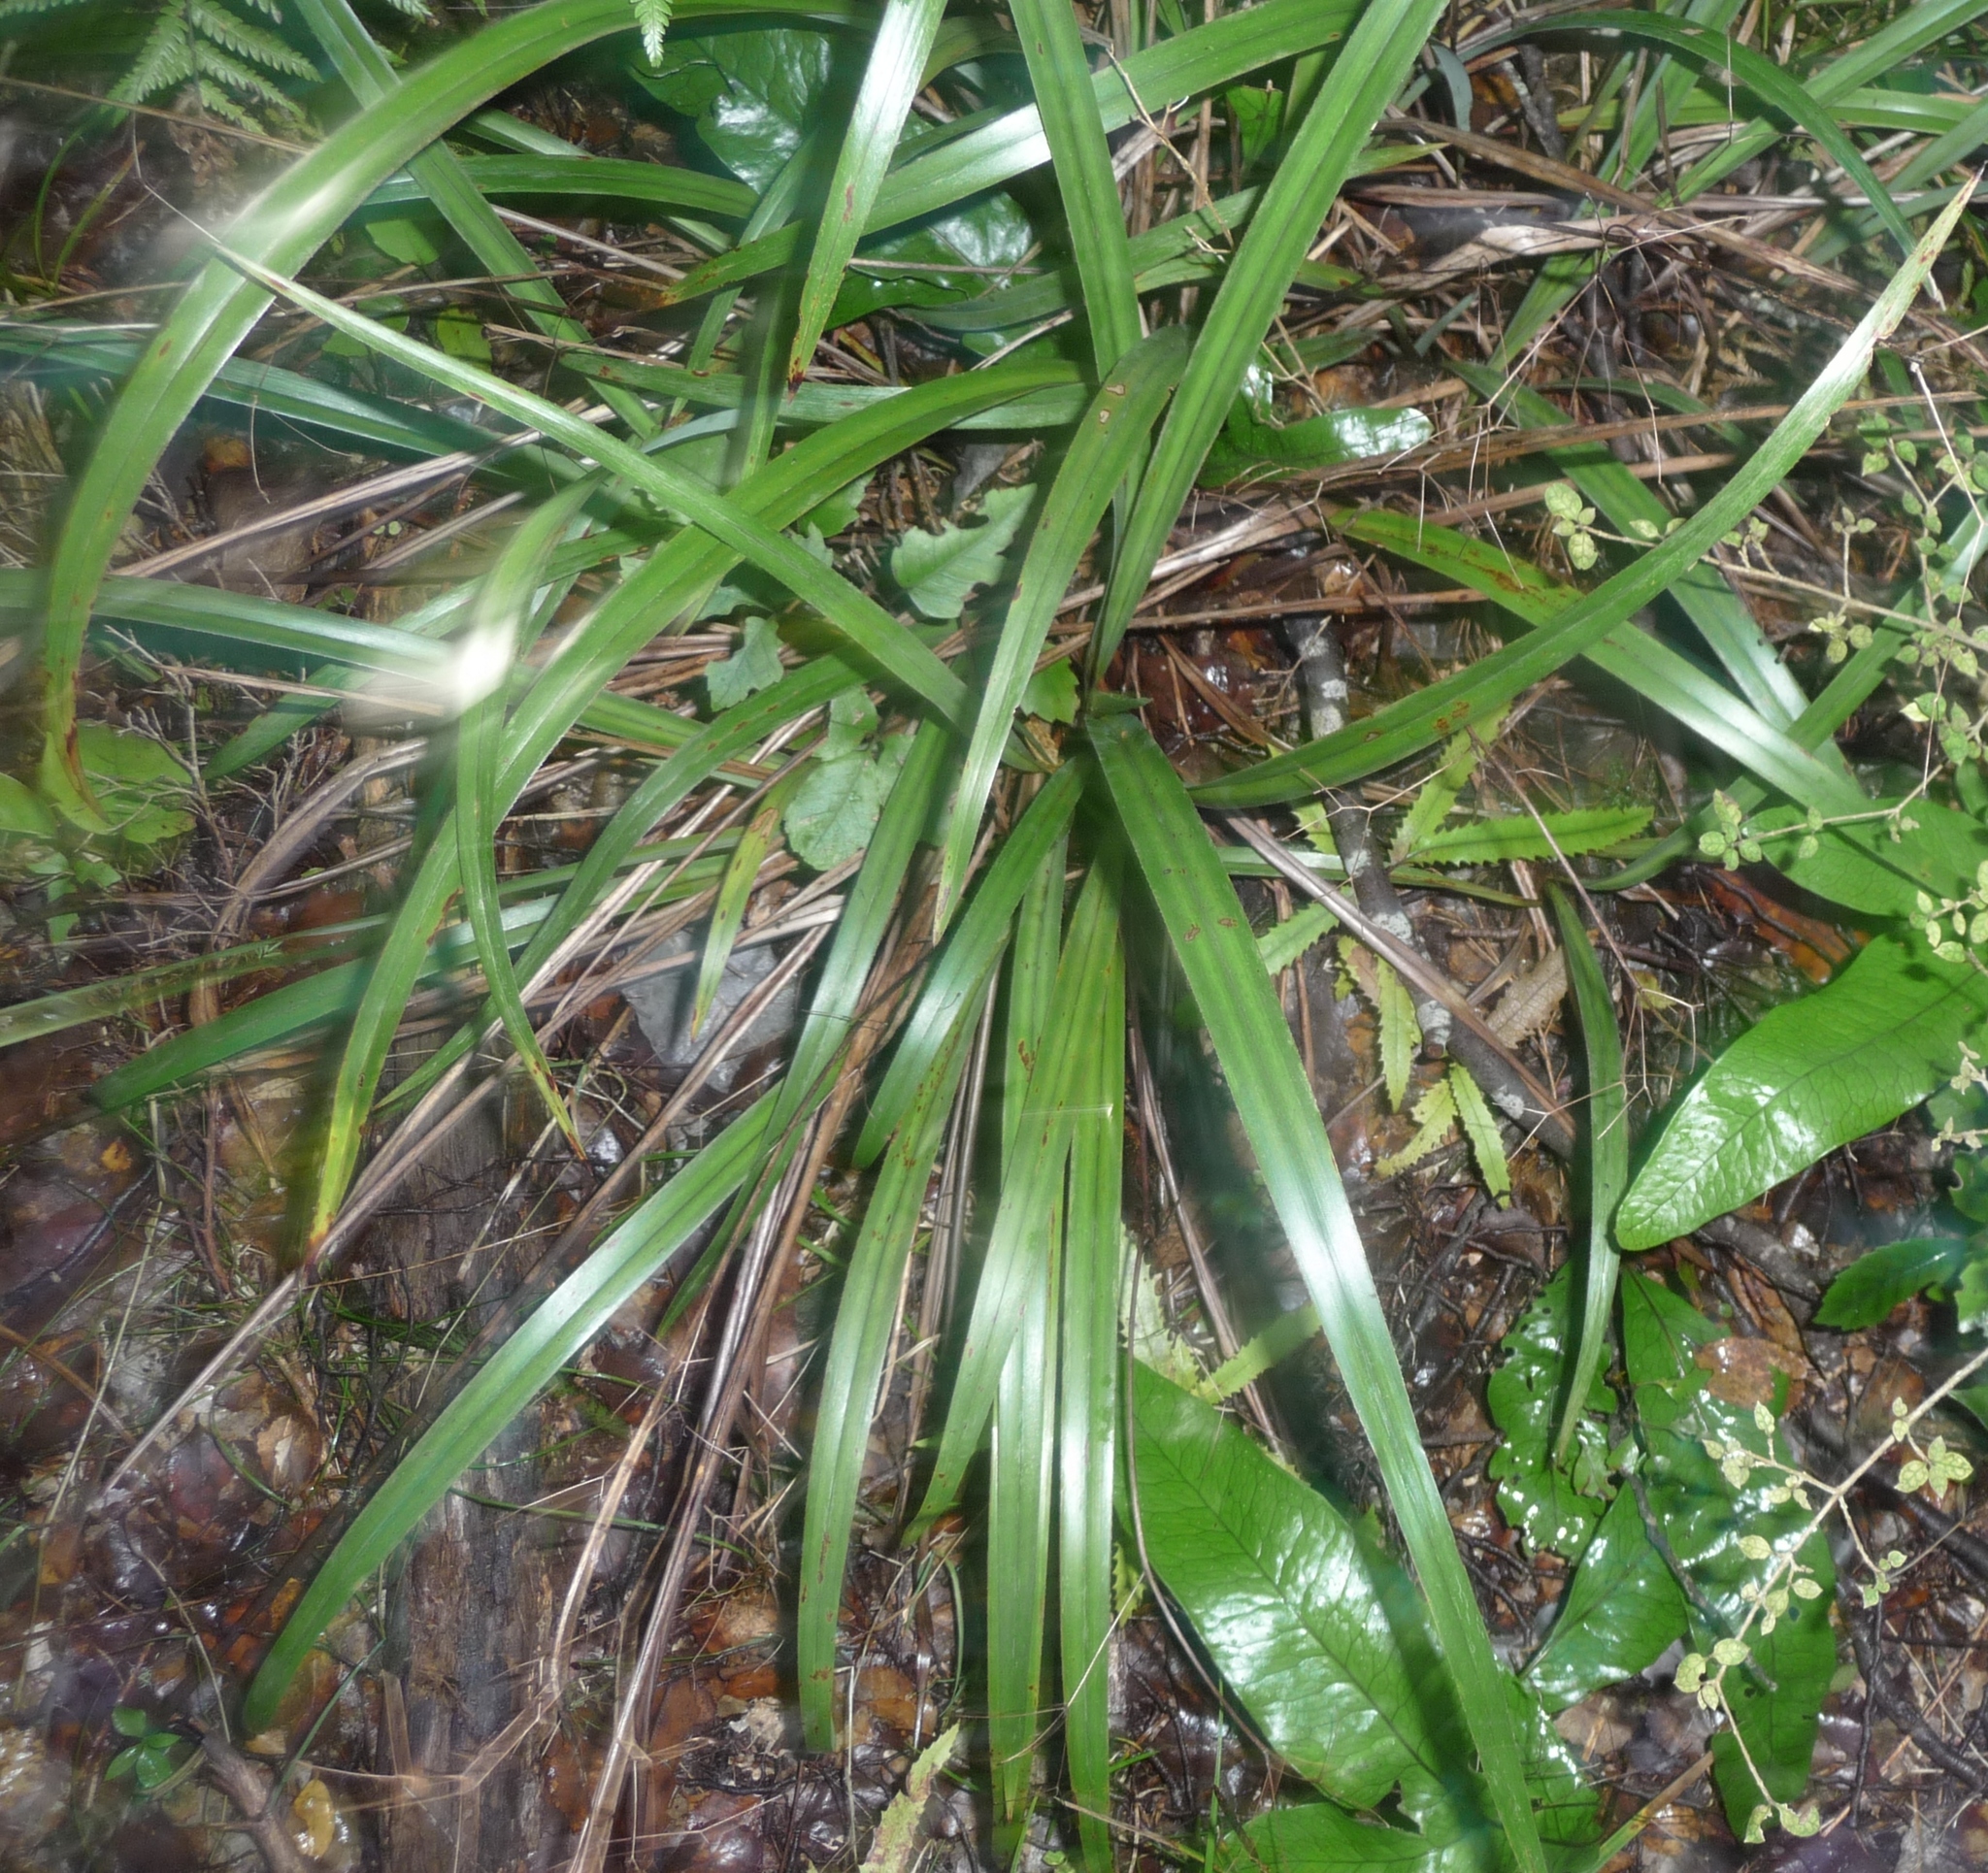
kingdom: Plantae
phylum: Tracheophyta
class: Liliopsida
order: Asparagales
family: Asphodelaceae
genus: Dianella
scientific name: Dianella nigra
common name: New zealand-blueberry
